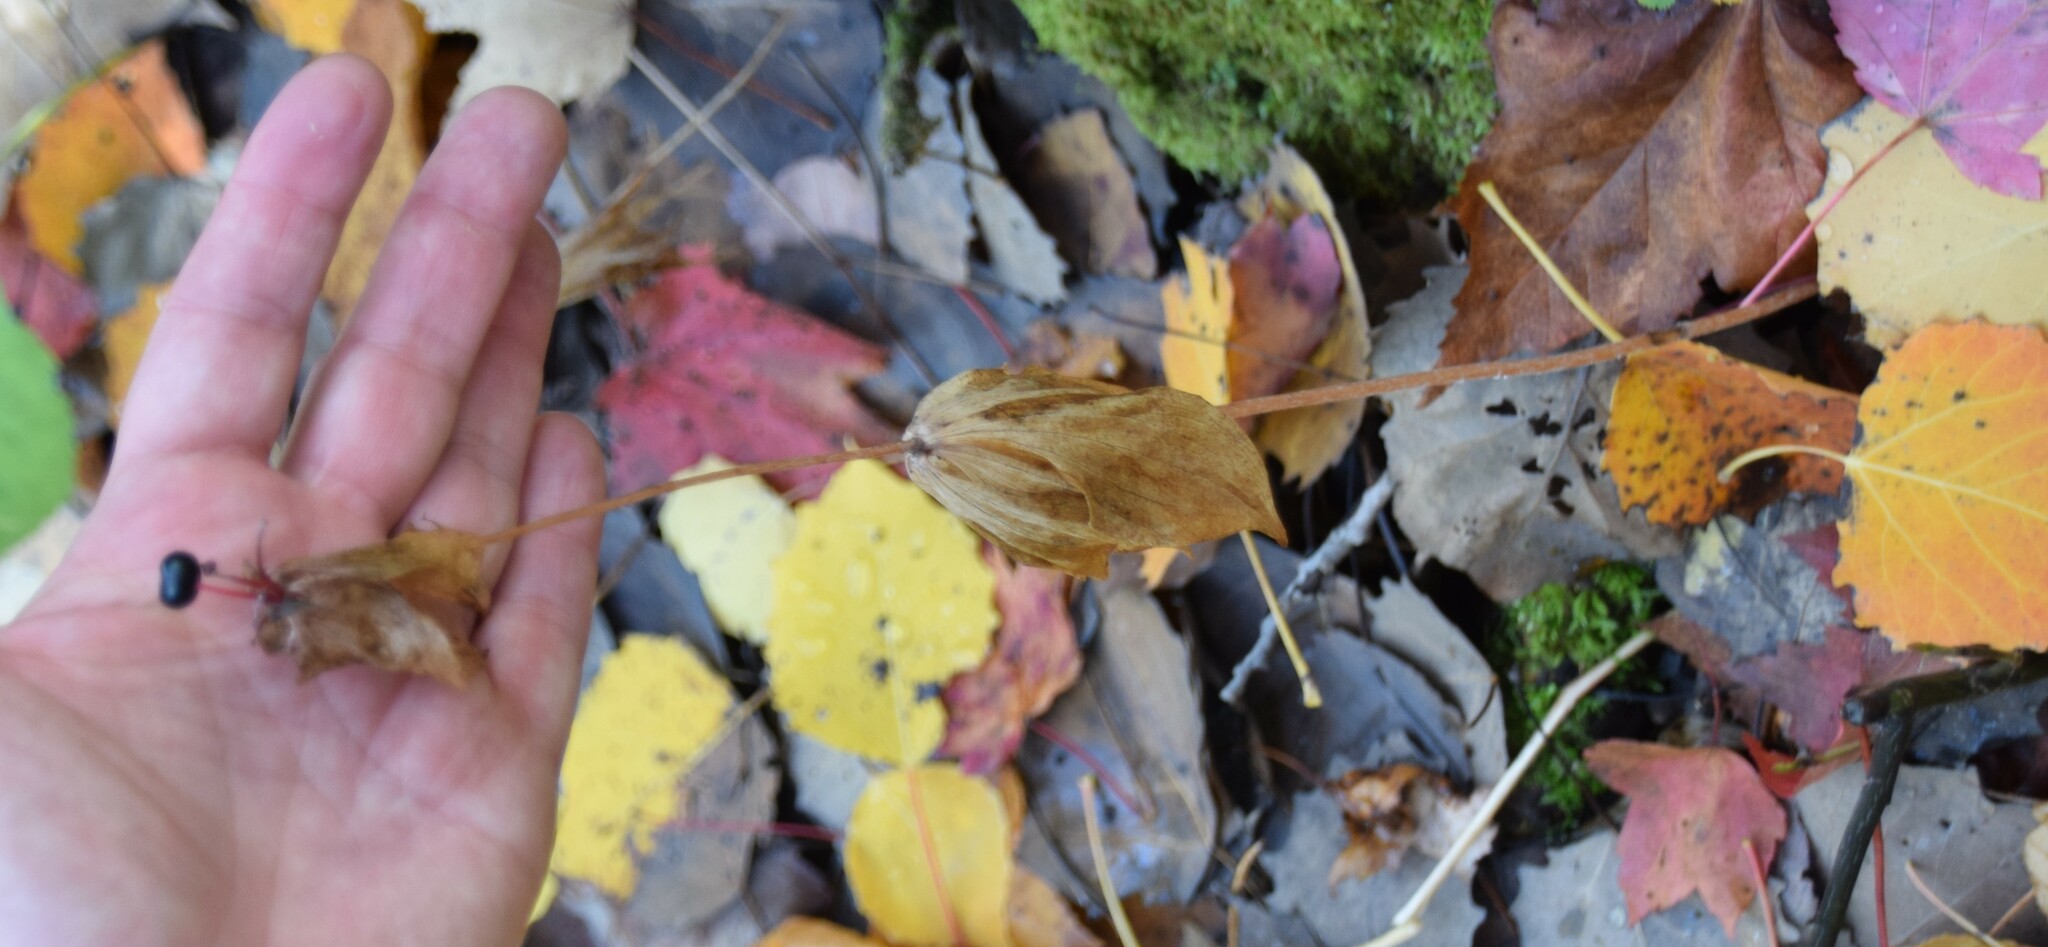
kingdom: Plantae
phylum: Tracheophyta
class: Liliopsida
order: Liliales
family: Liliaceae
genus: Medeola
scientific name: Medeola virginiana
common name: Indian cucumber-root
